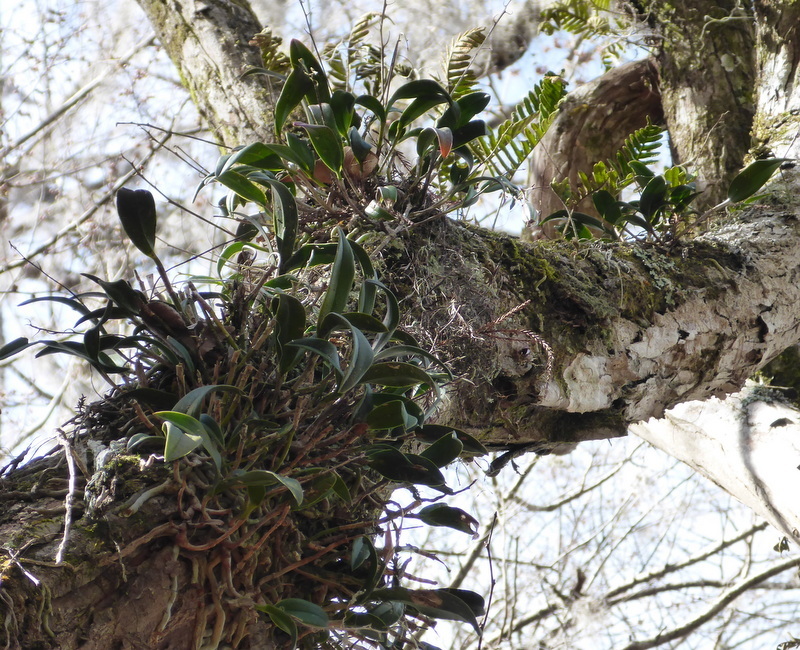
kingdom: Plantae
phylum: Tracheophyta
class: Liliopsida
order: Asparagales
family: Orchidaceae
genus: Epidendrum
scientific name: Epidendrum conopseum
